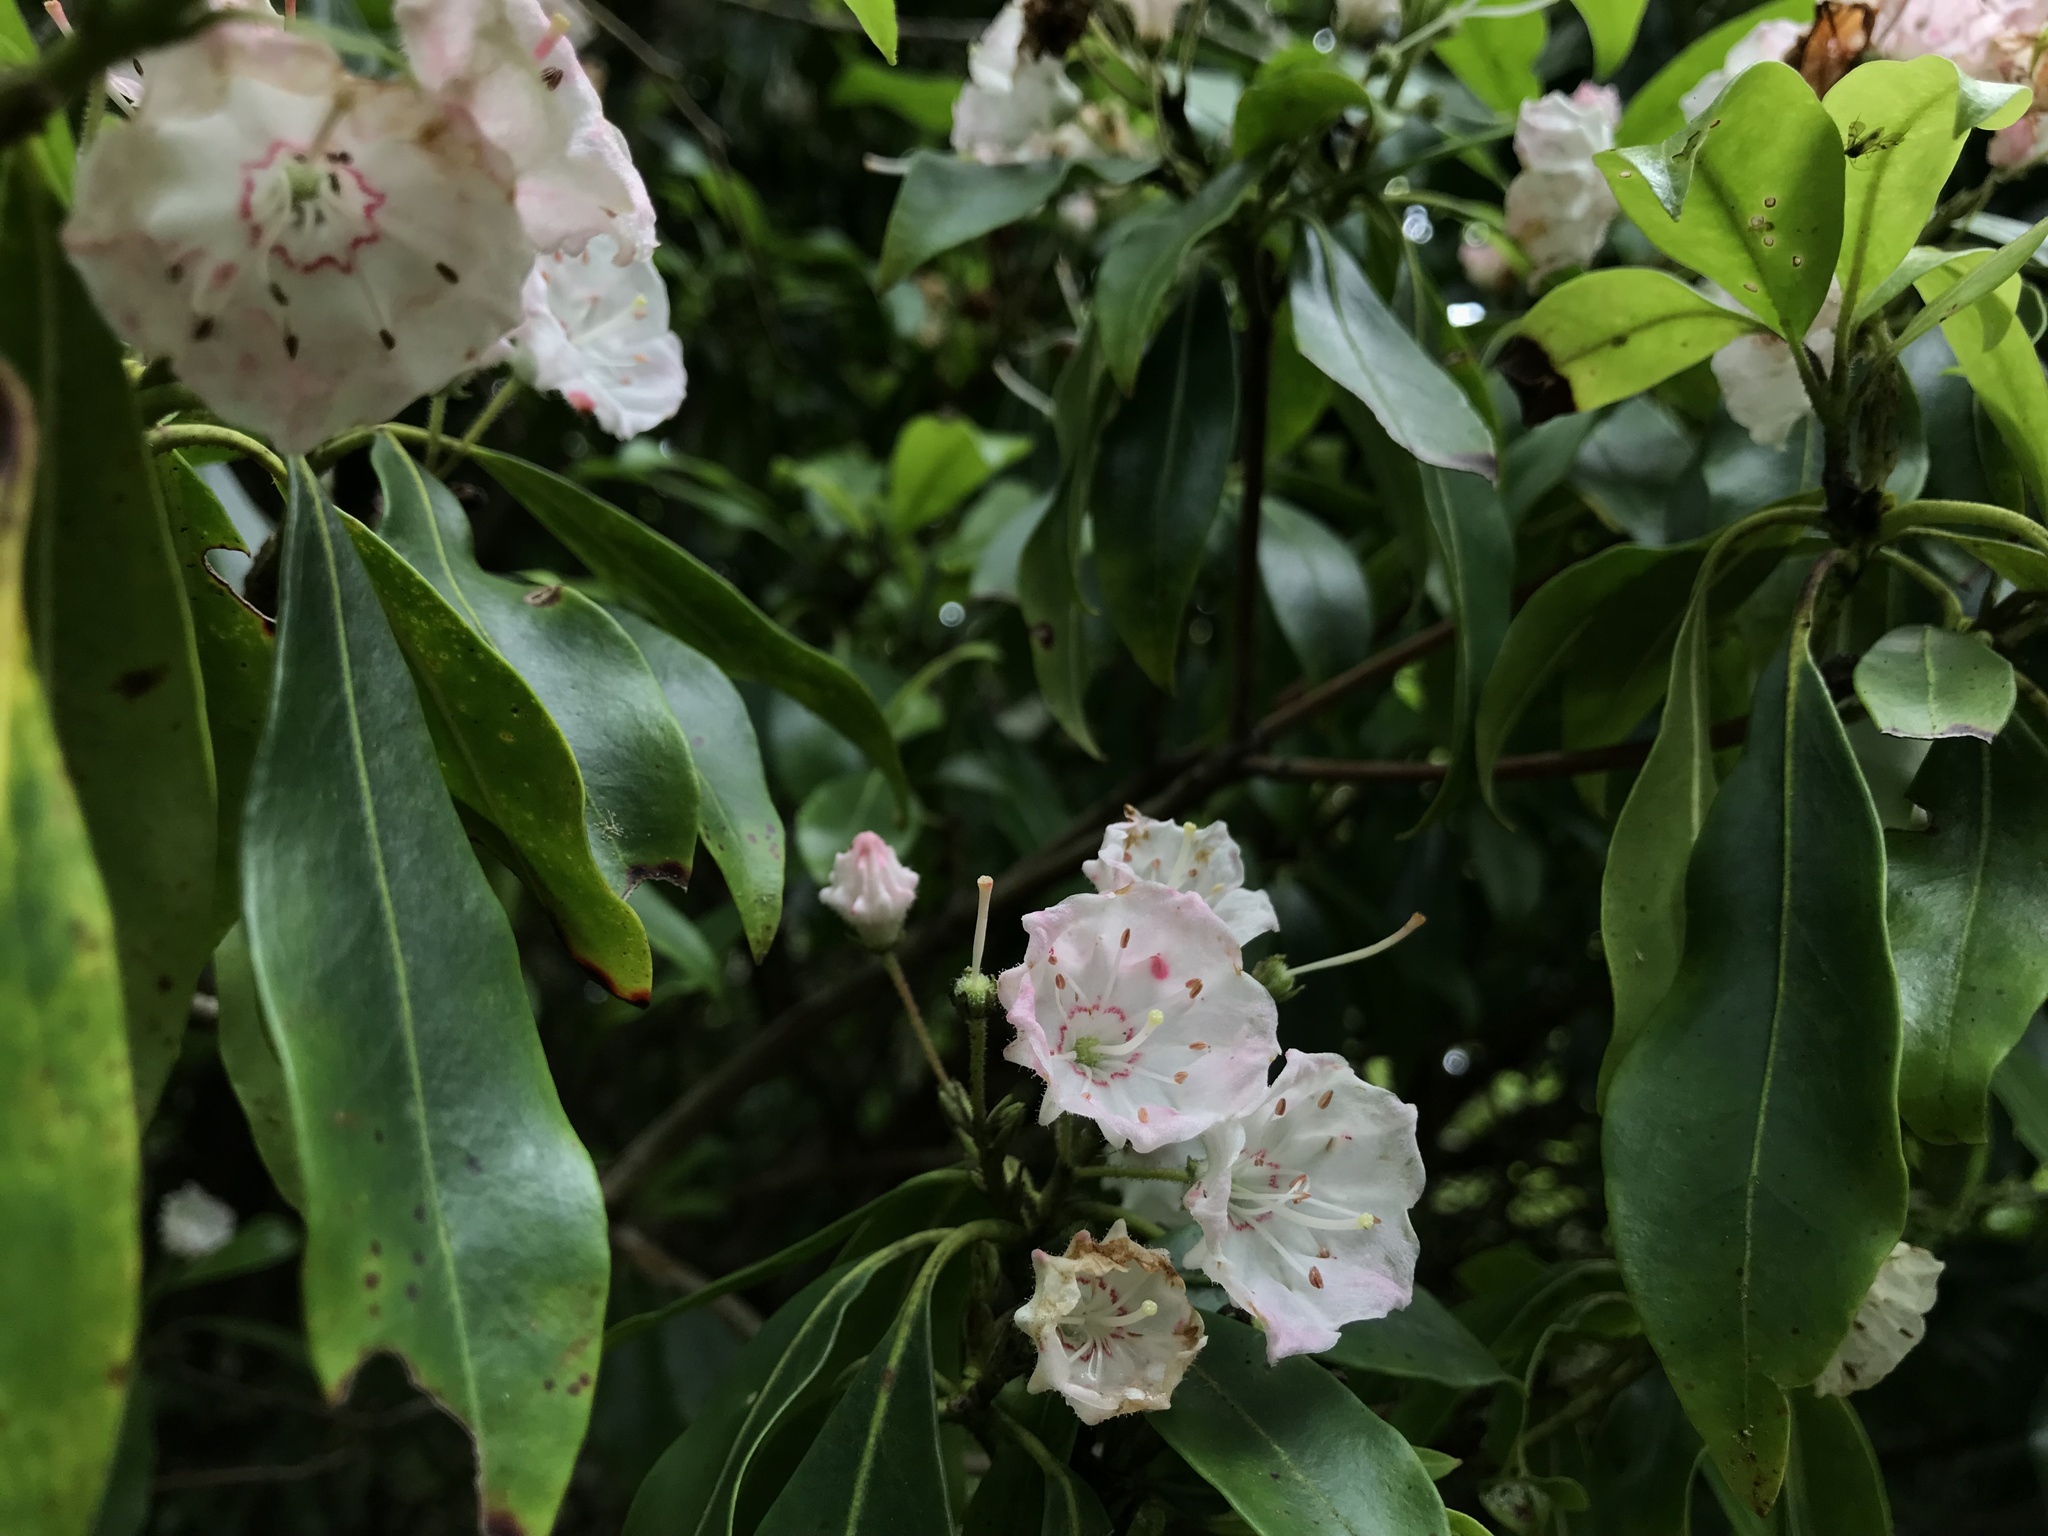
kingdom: Plantae
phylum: Tracheophyta
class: Magnoliopsida
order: Ericales
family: Ericaceae
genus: Kalmia
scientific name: Kalmia latifolia
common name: Mountain-laurel
